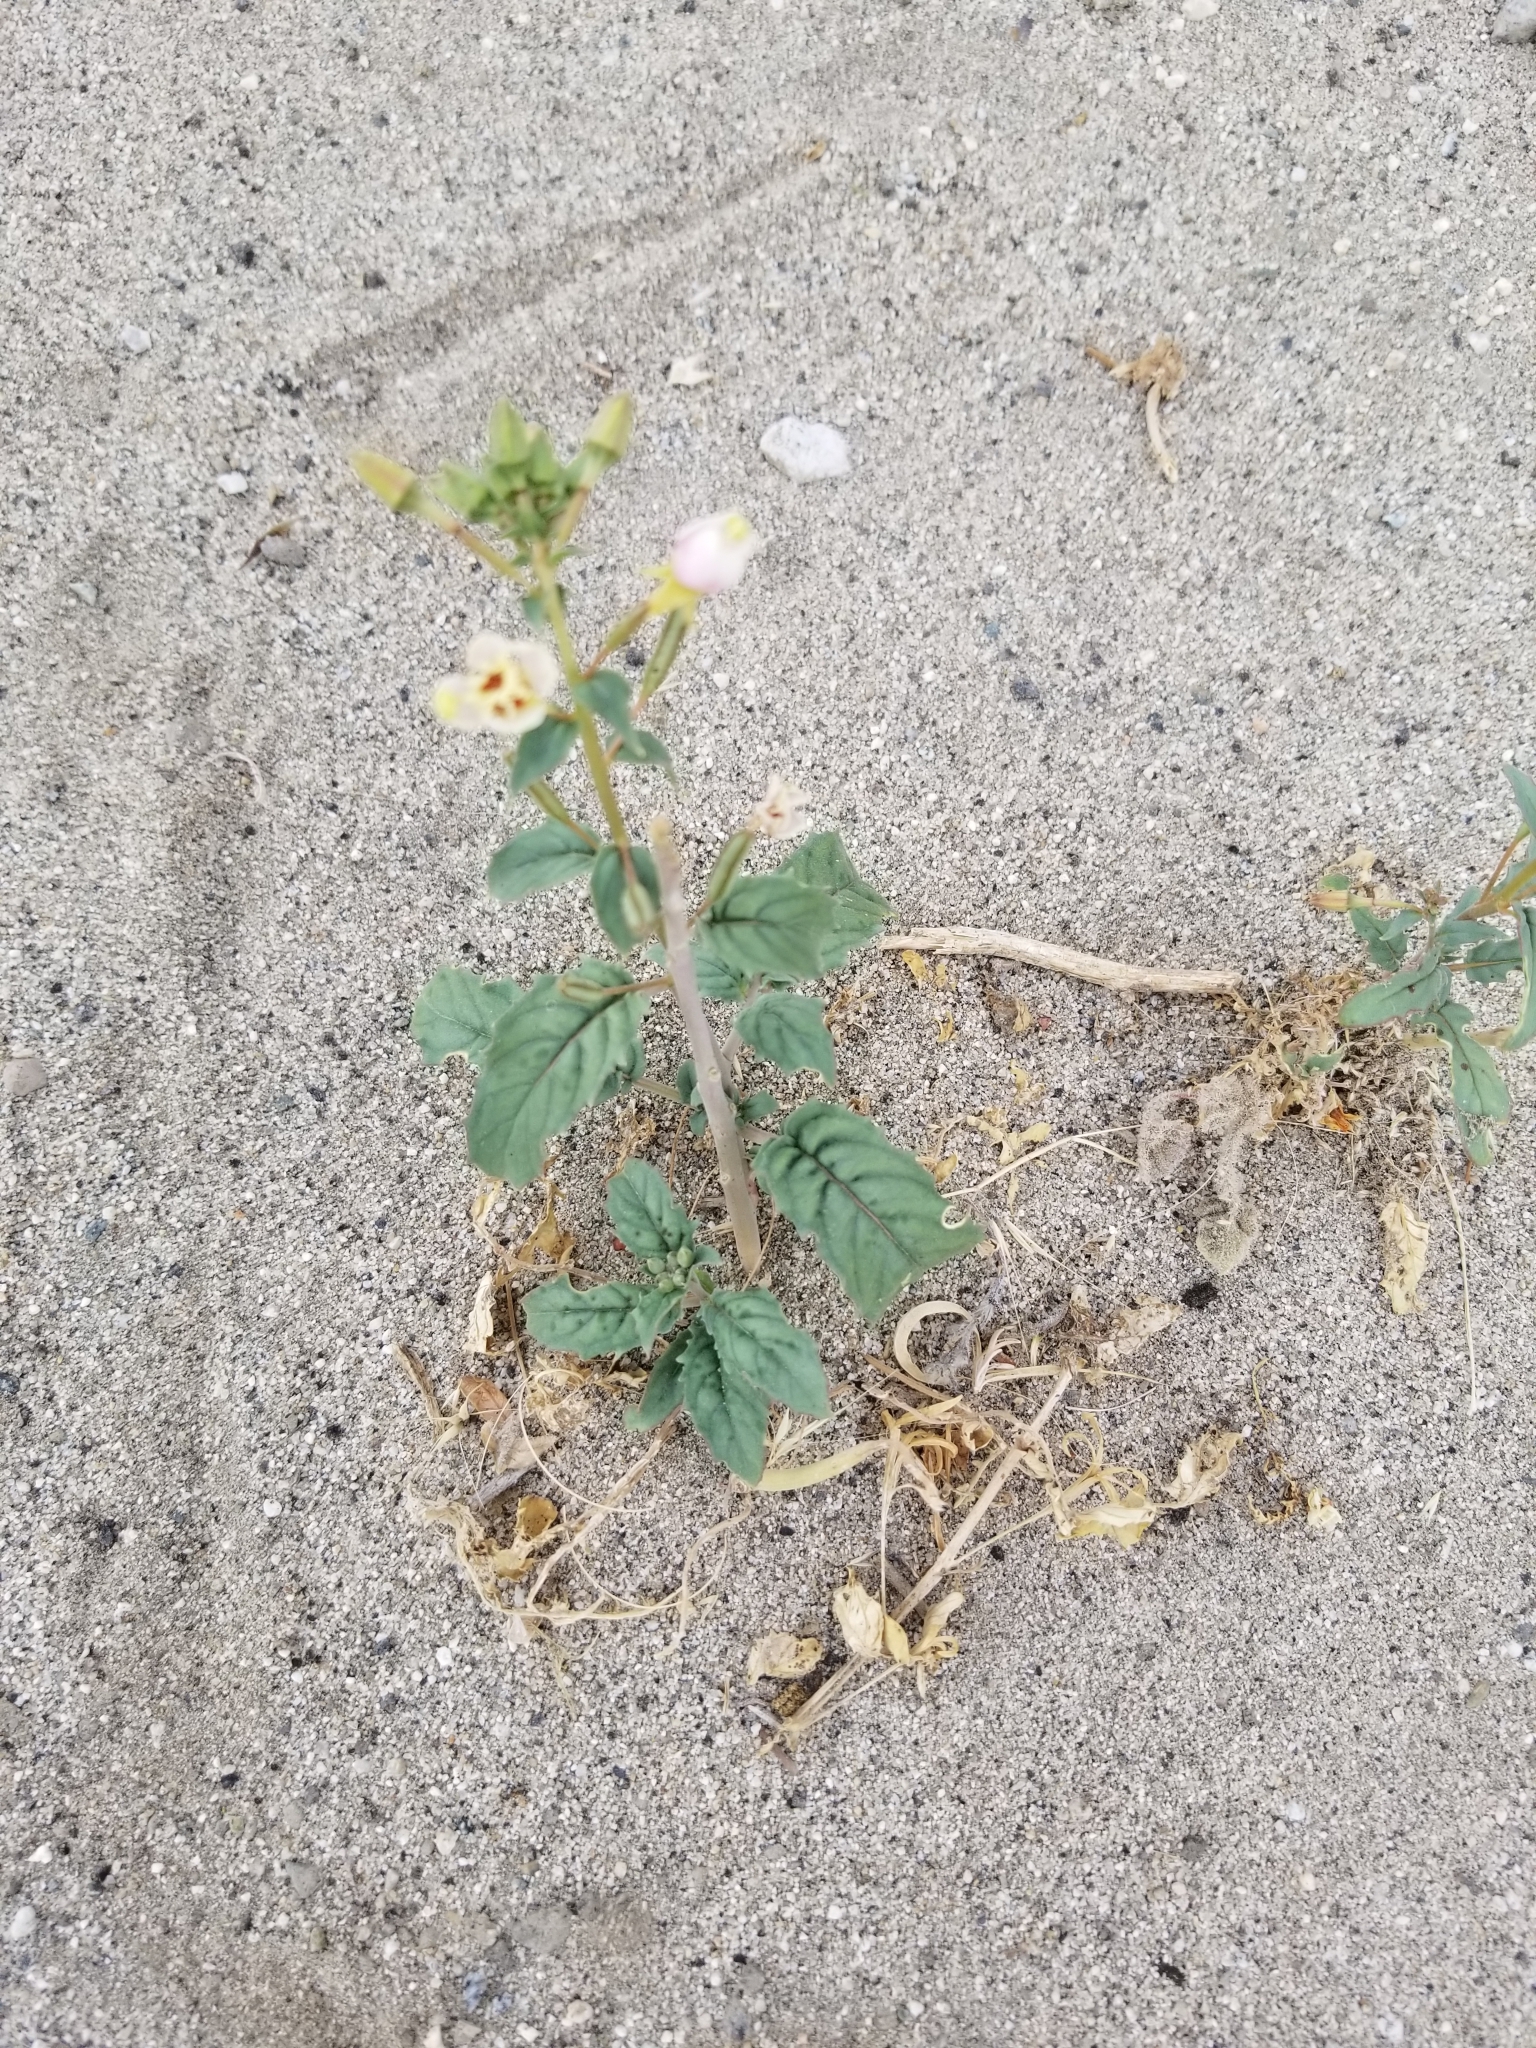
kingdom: Plantae
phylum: Tracheophyta
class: Magnoliopsida
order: Myrtales
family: Onagraceae
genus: Chylismia
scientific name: Chylismia claviformis
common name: Browneyes
